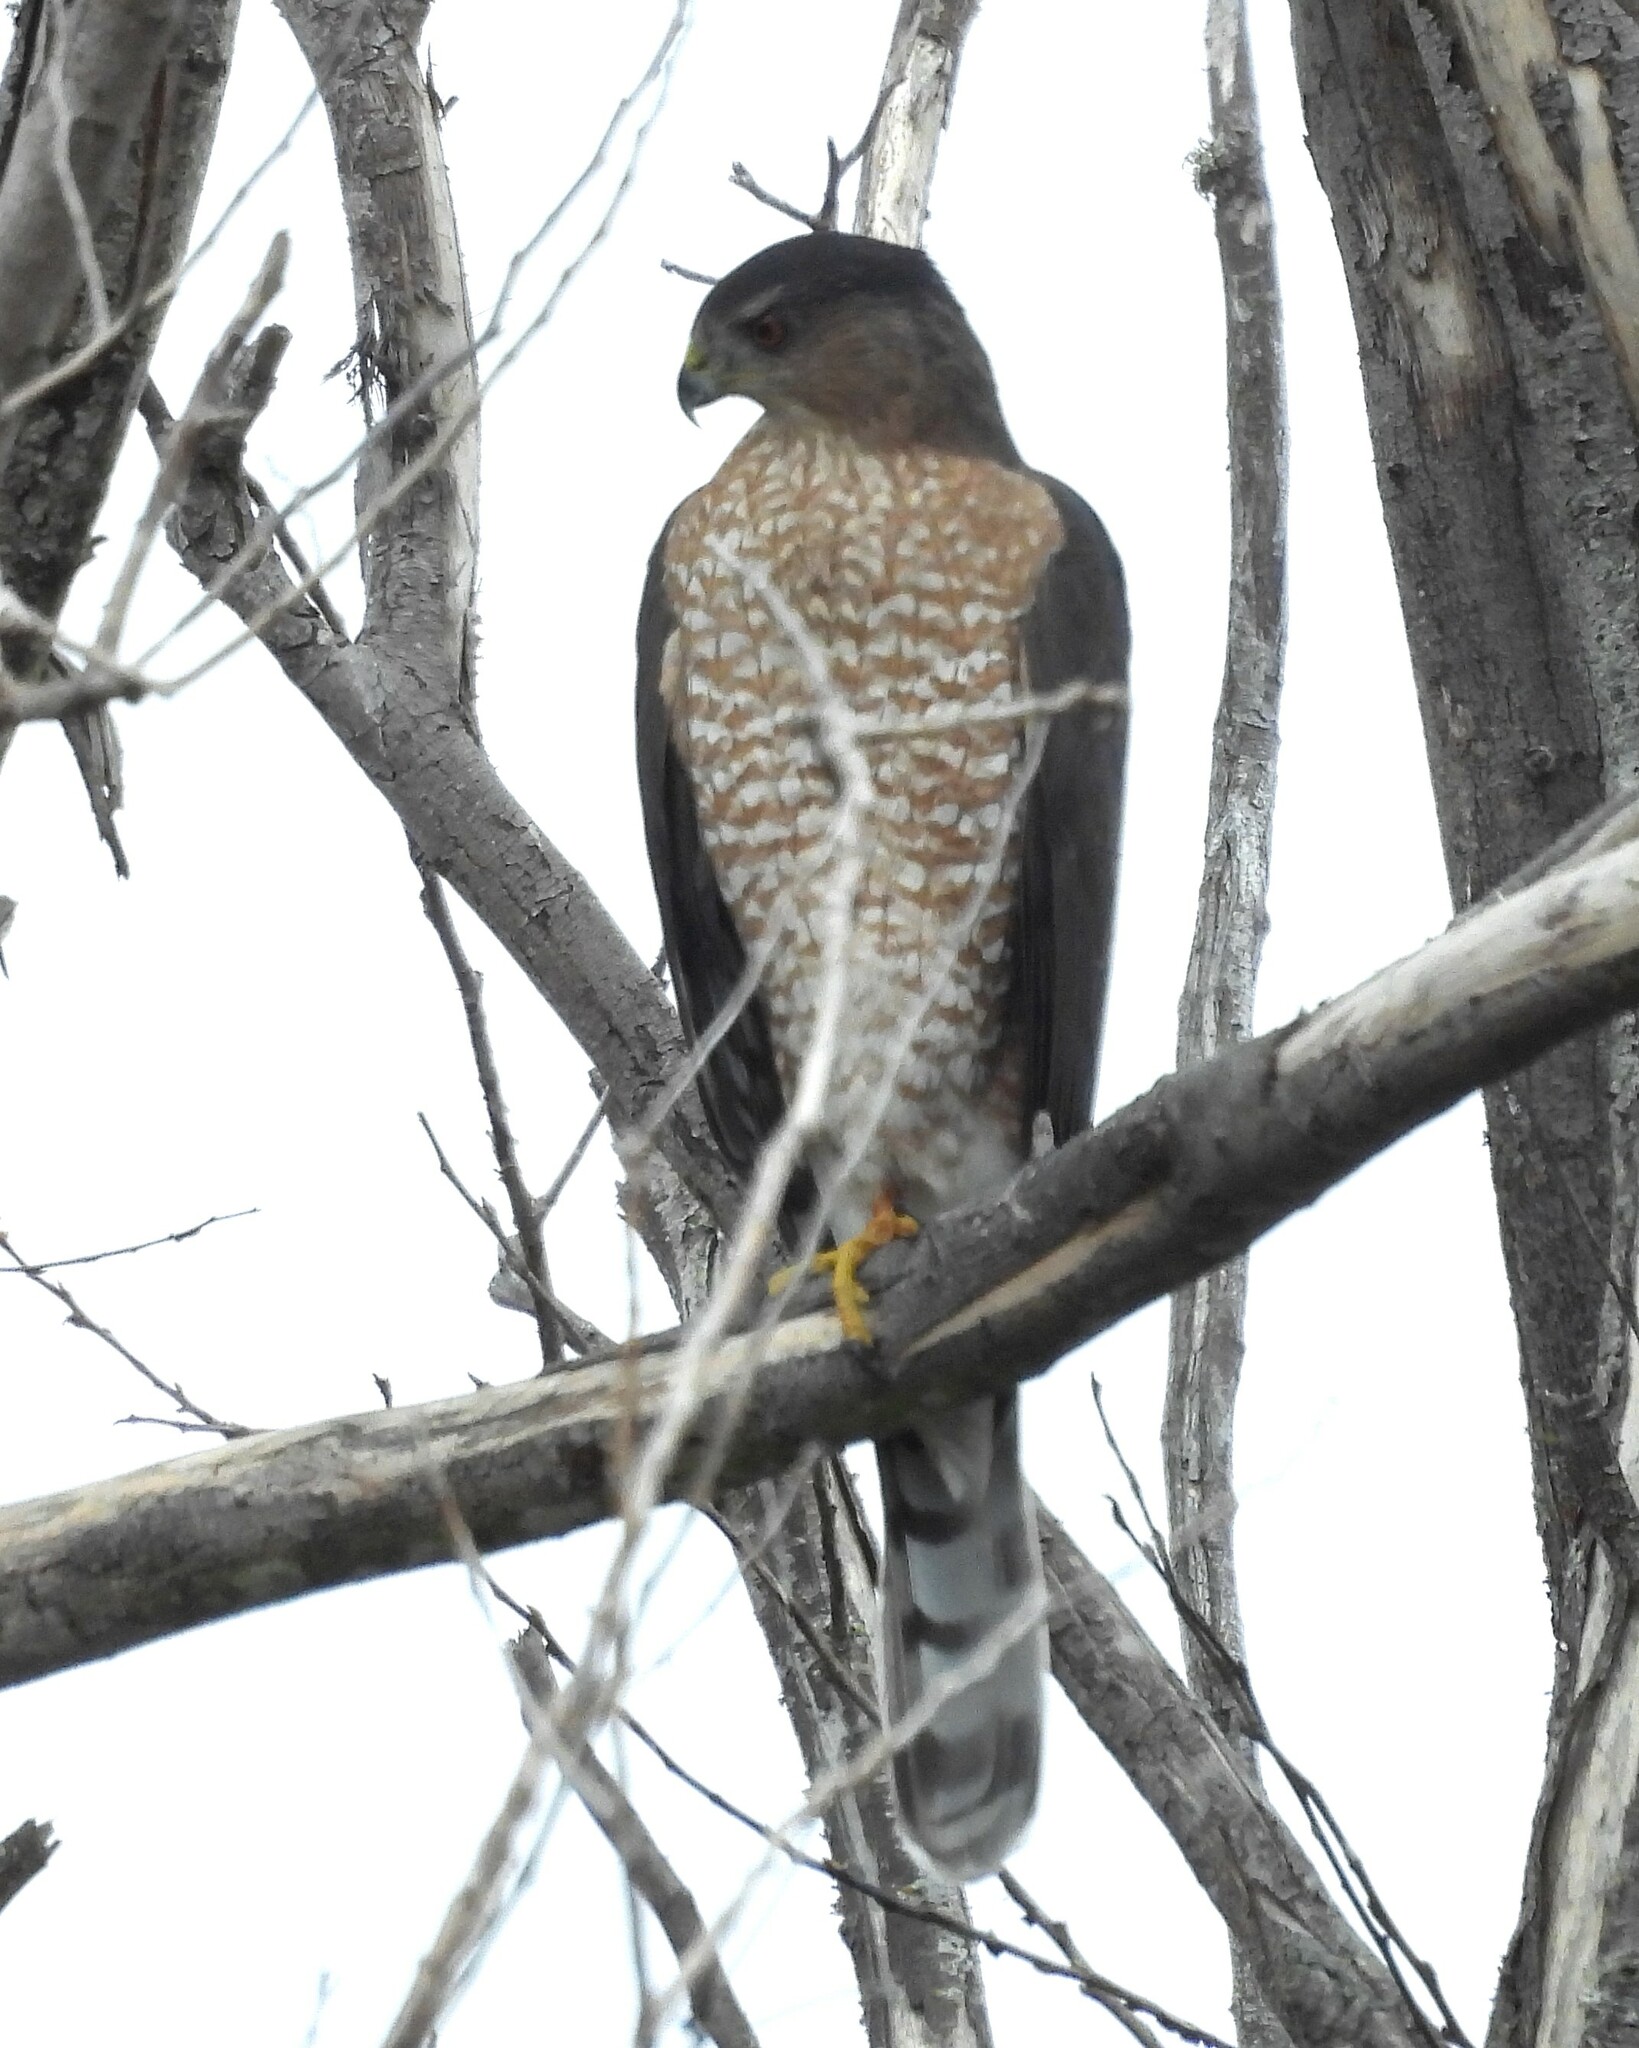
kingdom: Animalia
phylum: Chordata
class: Aves
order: Accipitriformes
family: Accipitridae
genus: Accipiter
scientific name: Accipiter cooperii
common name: Cooper's hawk
